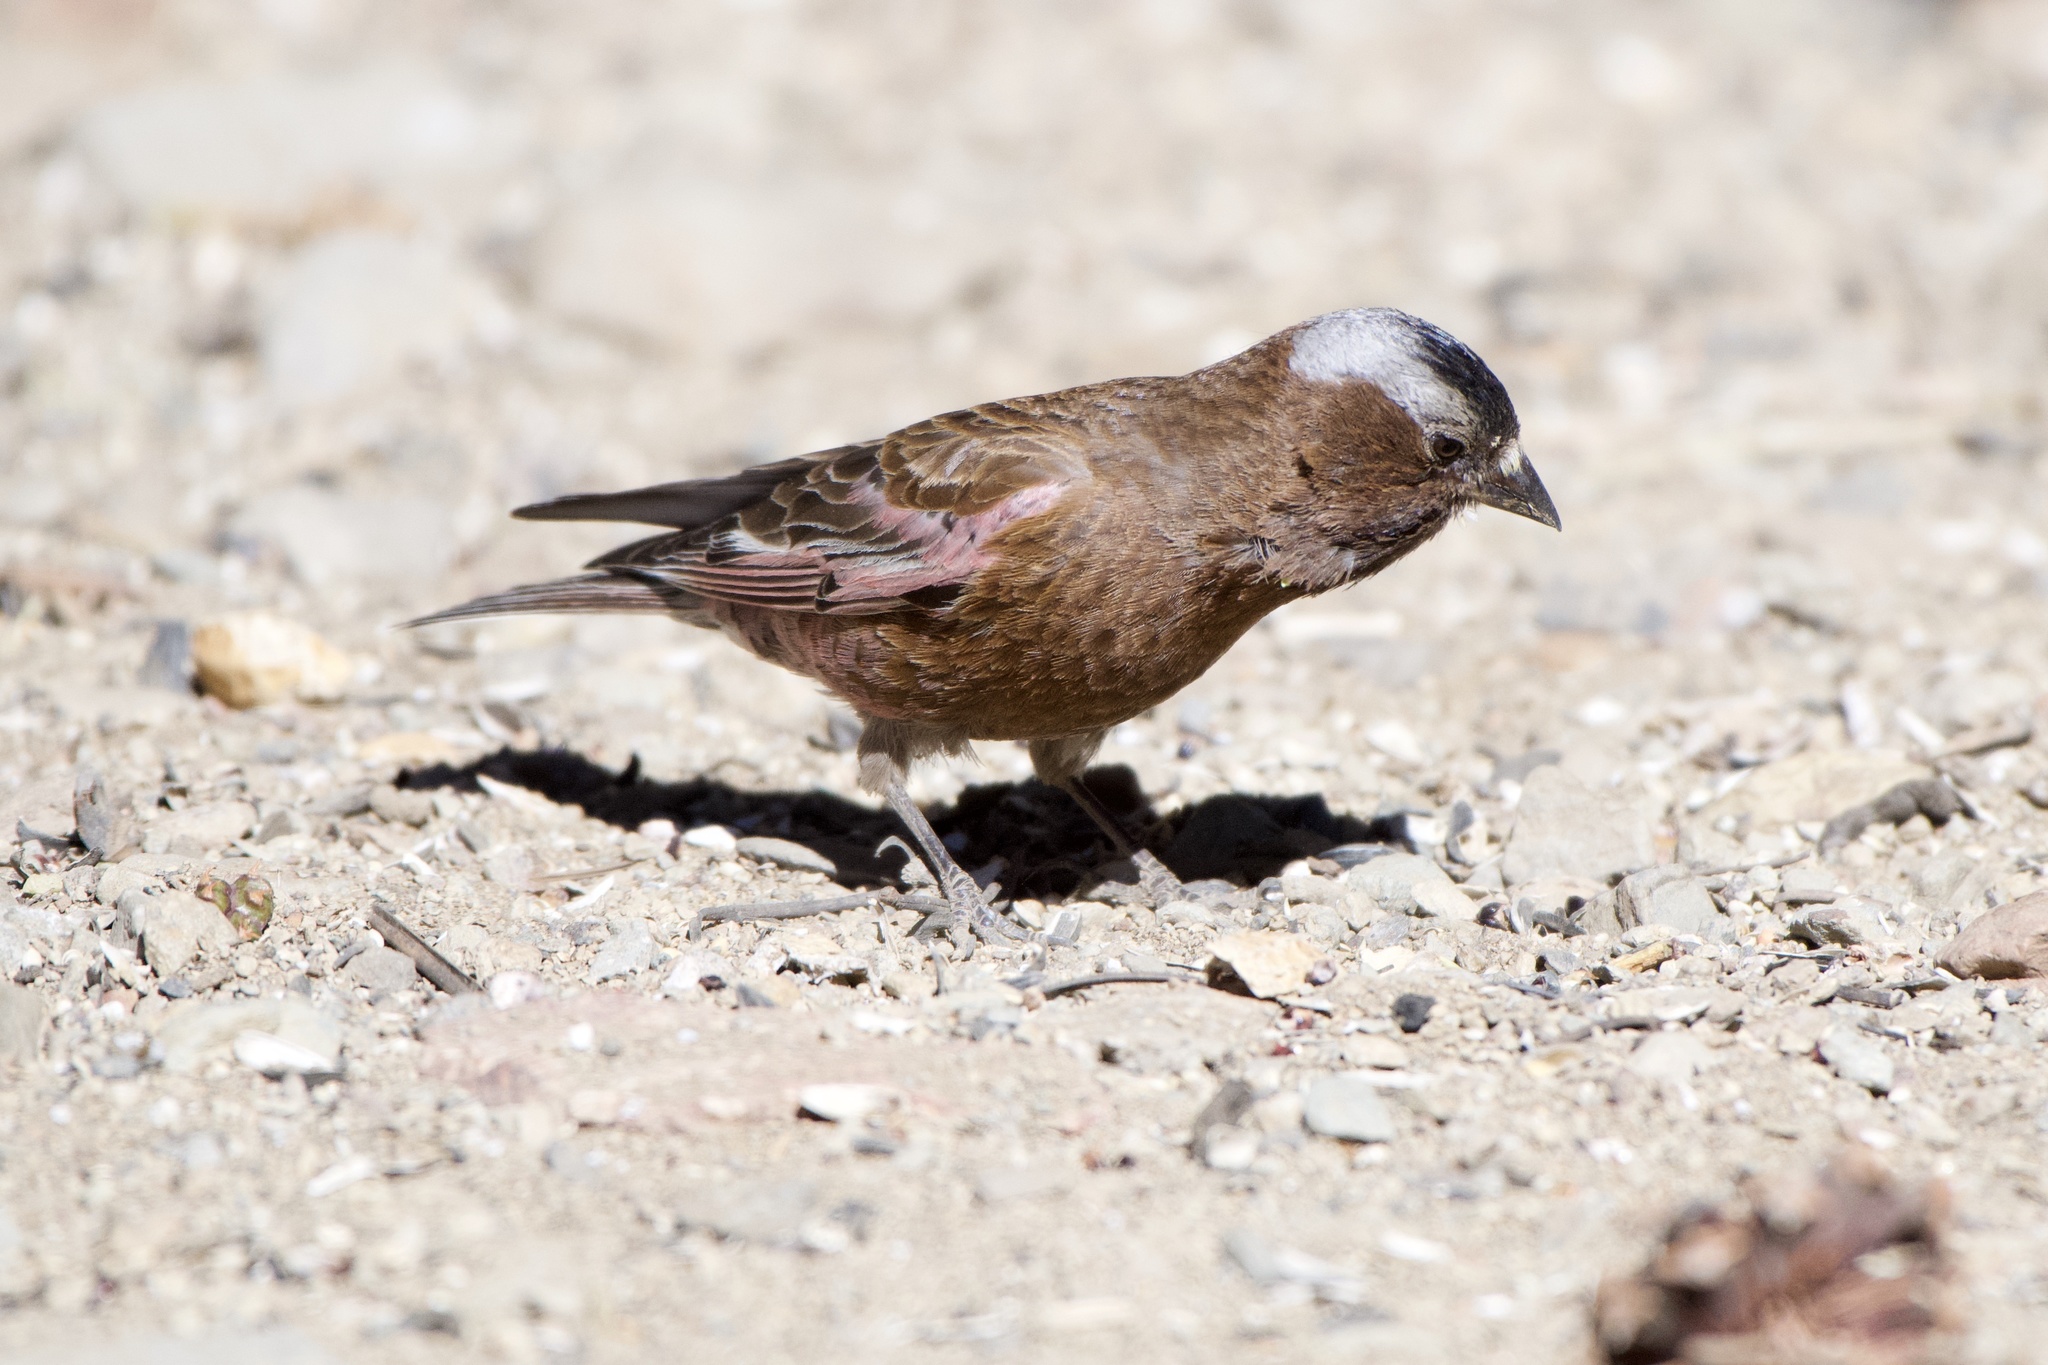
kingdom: Animalia
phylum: Chordata
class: Aves
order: Passeriformes
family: Fringillidae
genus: Leucosticte
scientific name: Leucosticte tephrocotis
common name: Gray-crowned rosy-finch
